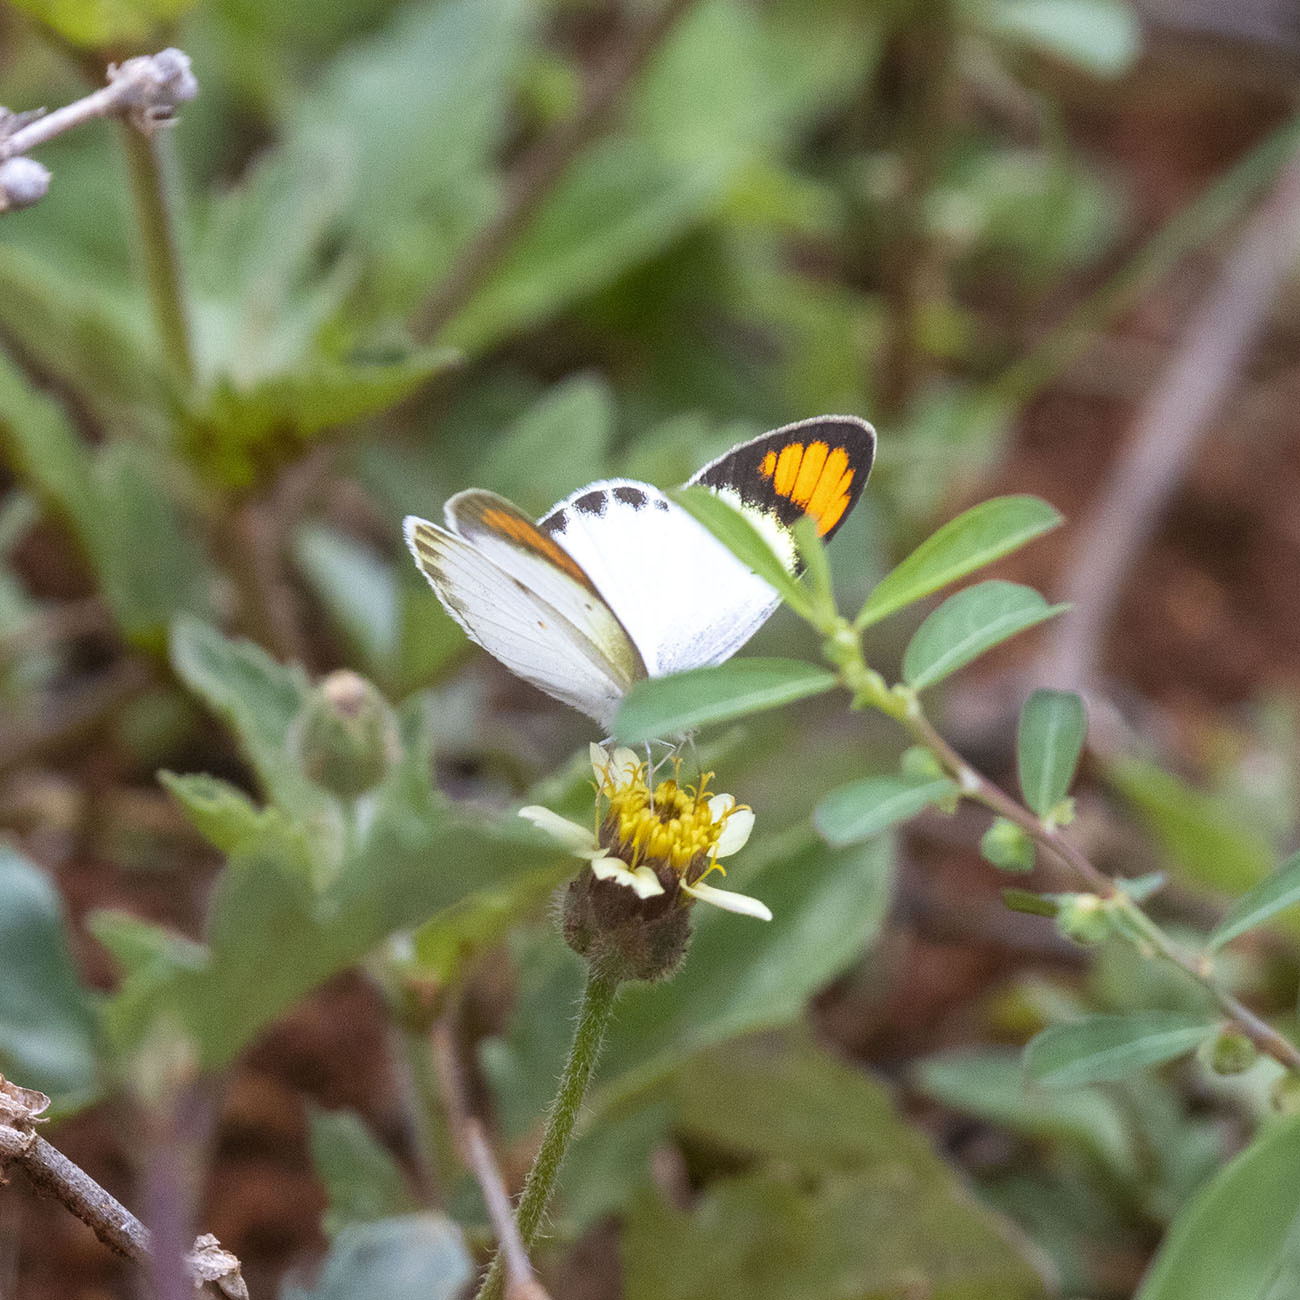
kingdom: Animalia
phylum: Arthropoda
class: Insecta
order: Lepidoptera
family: Pieridae
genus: Colotis
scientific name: Colotis etrida
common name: Little orange tip
